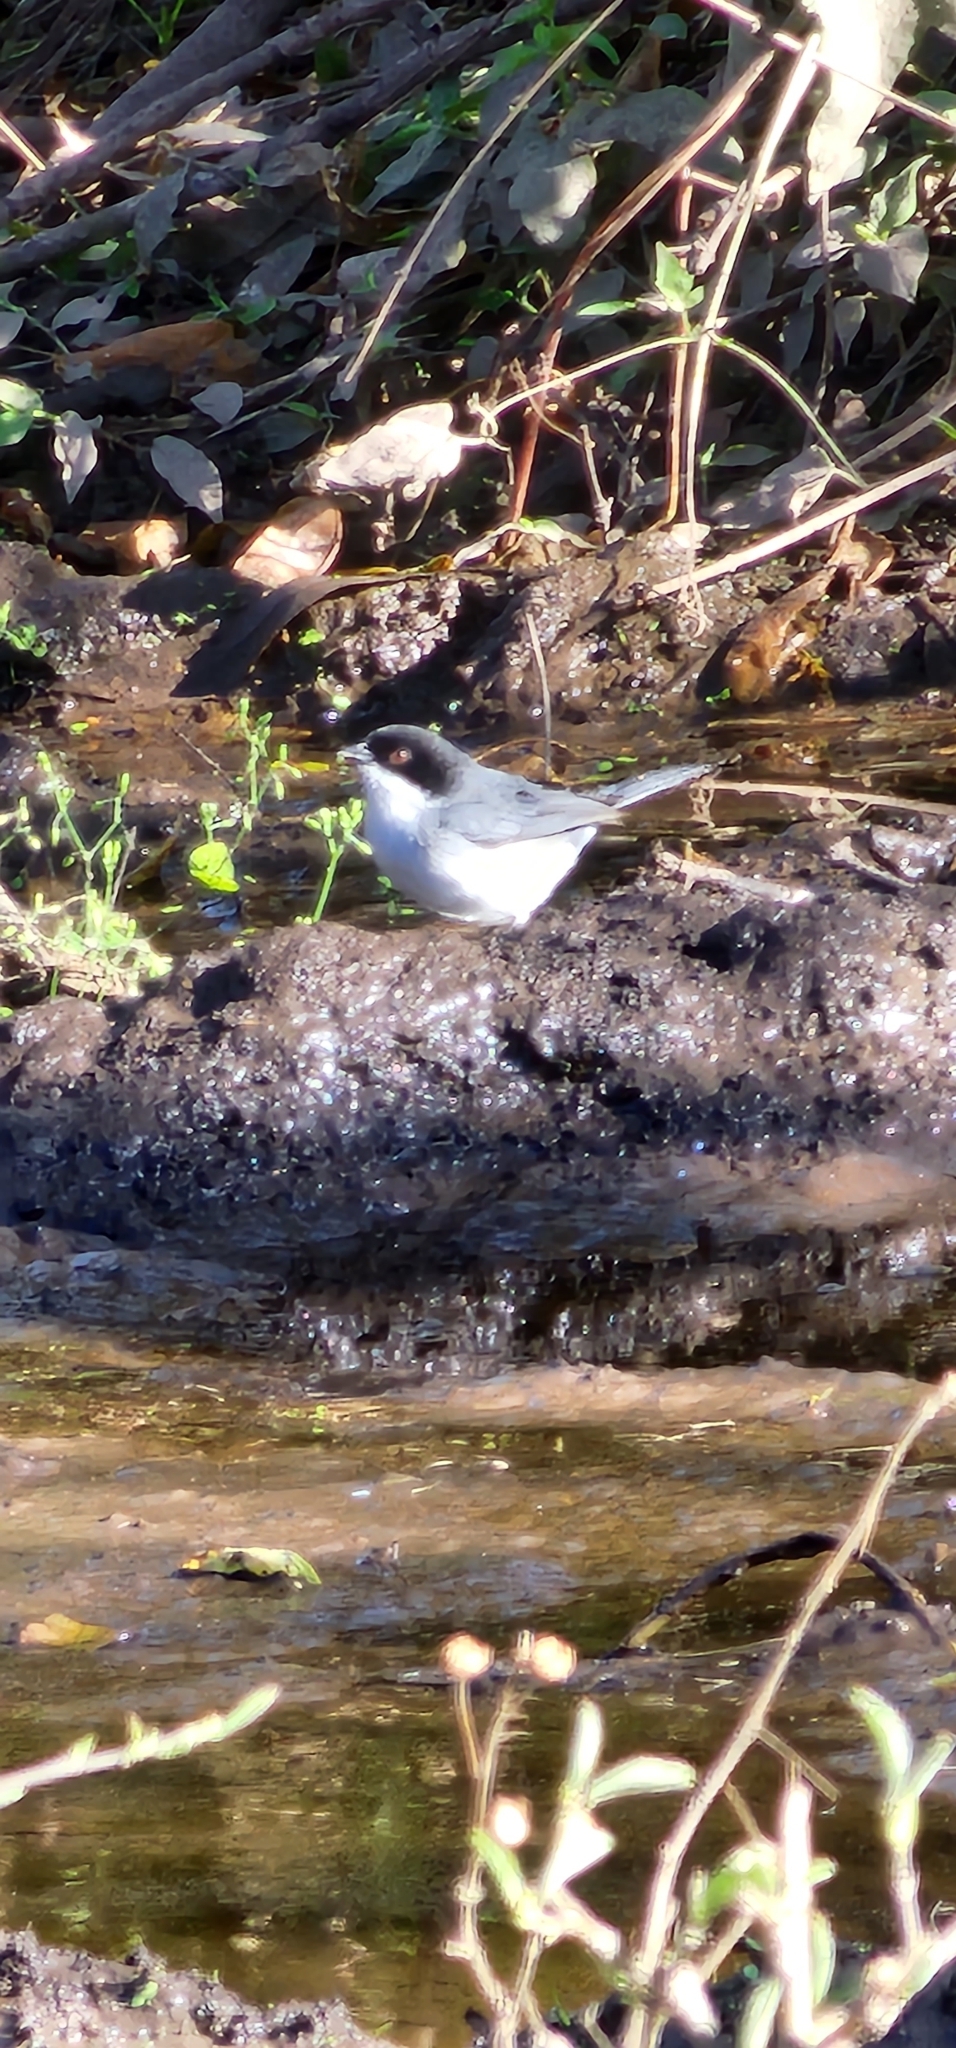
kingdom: Animalia
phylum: Chordata
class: Aves
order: Passeriformes
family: Thraupidae
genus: Microspingus
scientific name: Microspingus melanoleucus
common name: Black-capped warbling-finch
